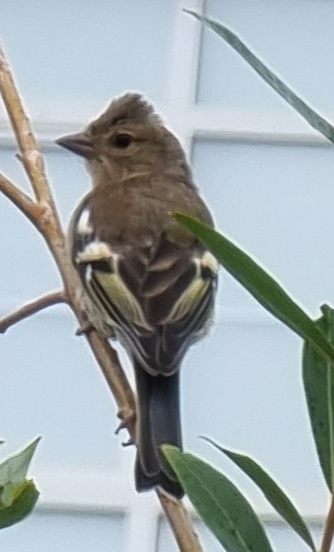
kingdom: Animalia
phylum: Chordata
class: Aves
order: Passeriformes
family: Fringillidae
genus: Fringilla
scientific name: Fringilla coelebs
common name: Common chaffinch
